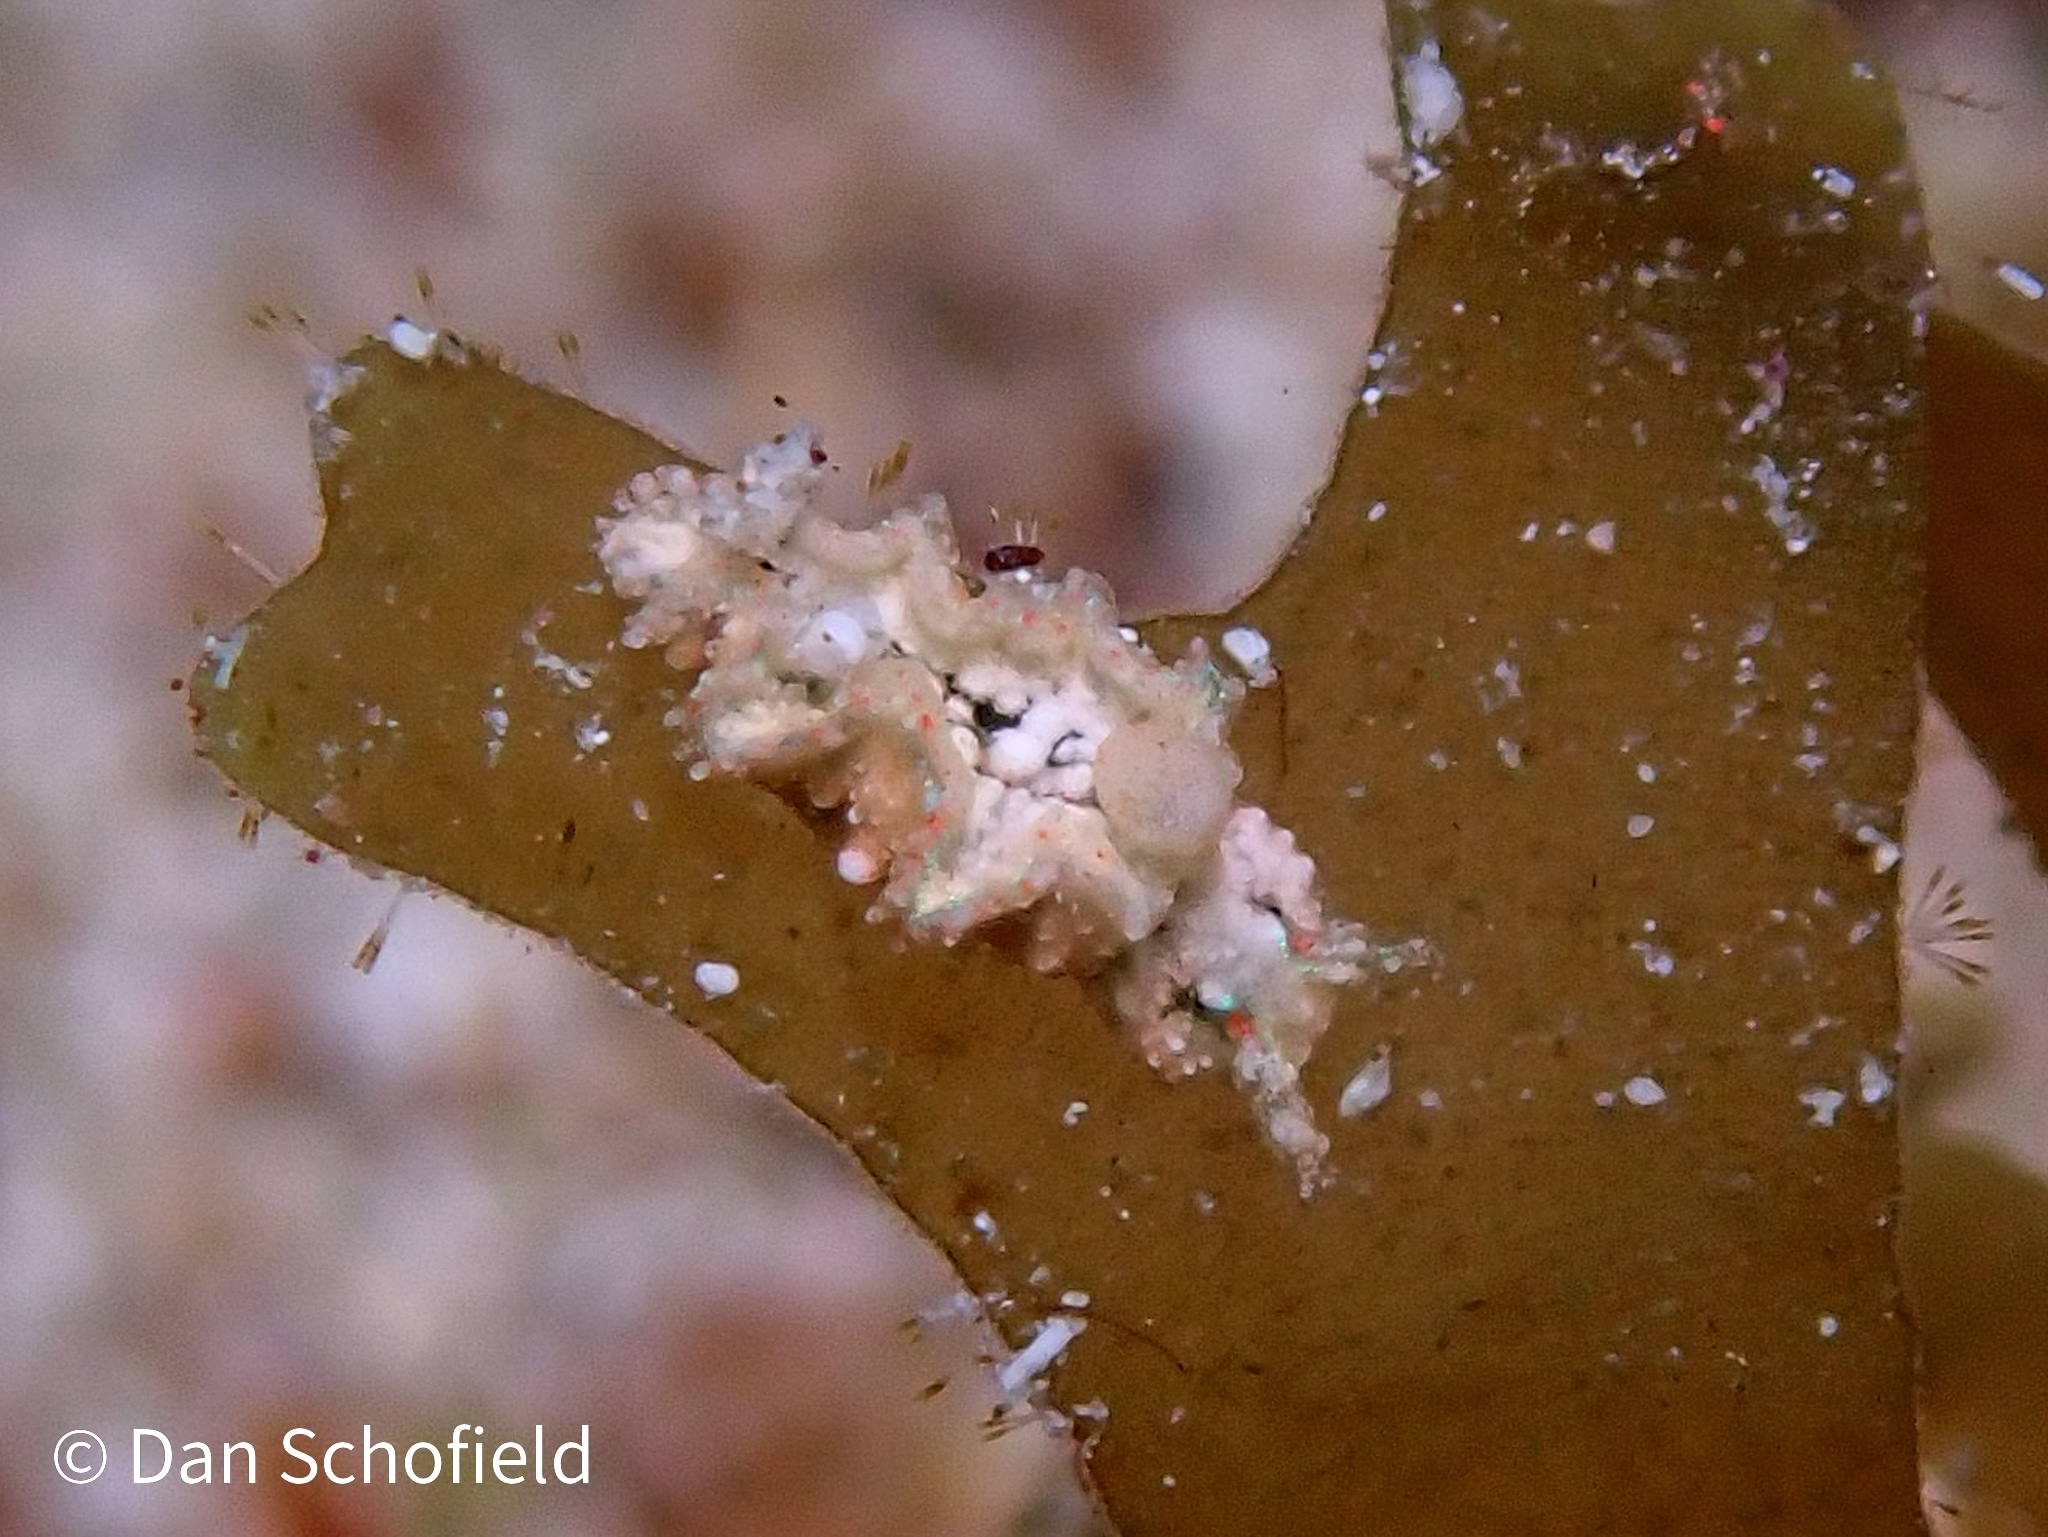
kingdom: Animalia
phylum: Mollusca
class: Gastropoda
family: Plakobranchidae
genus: Elysia
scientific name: Elysia ellenae
